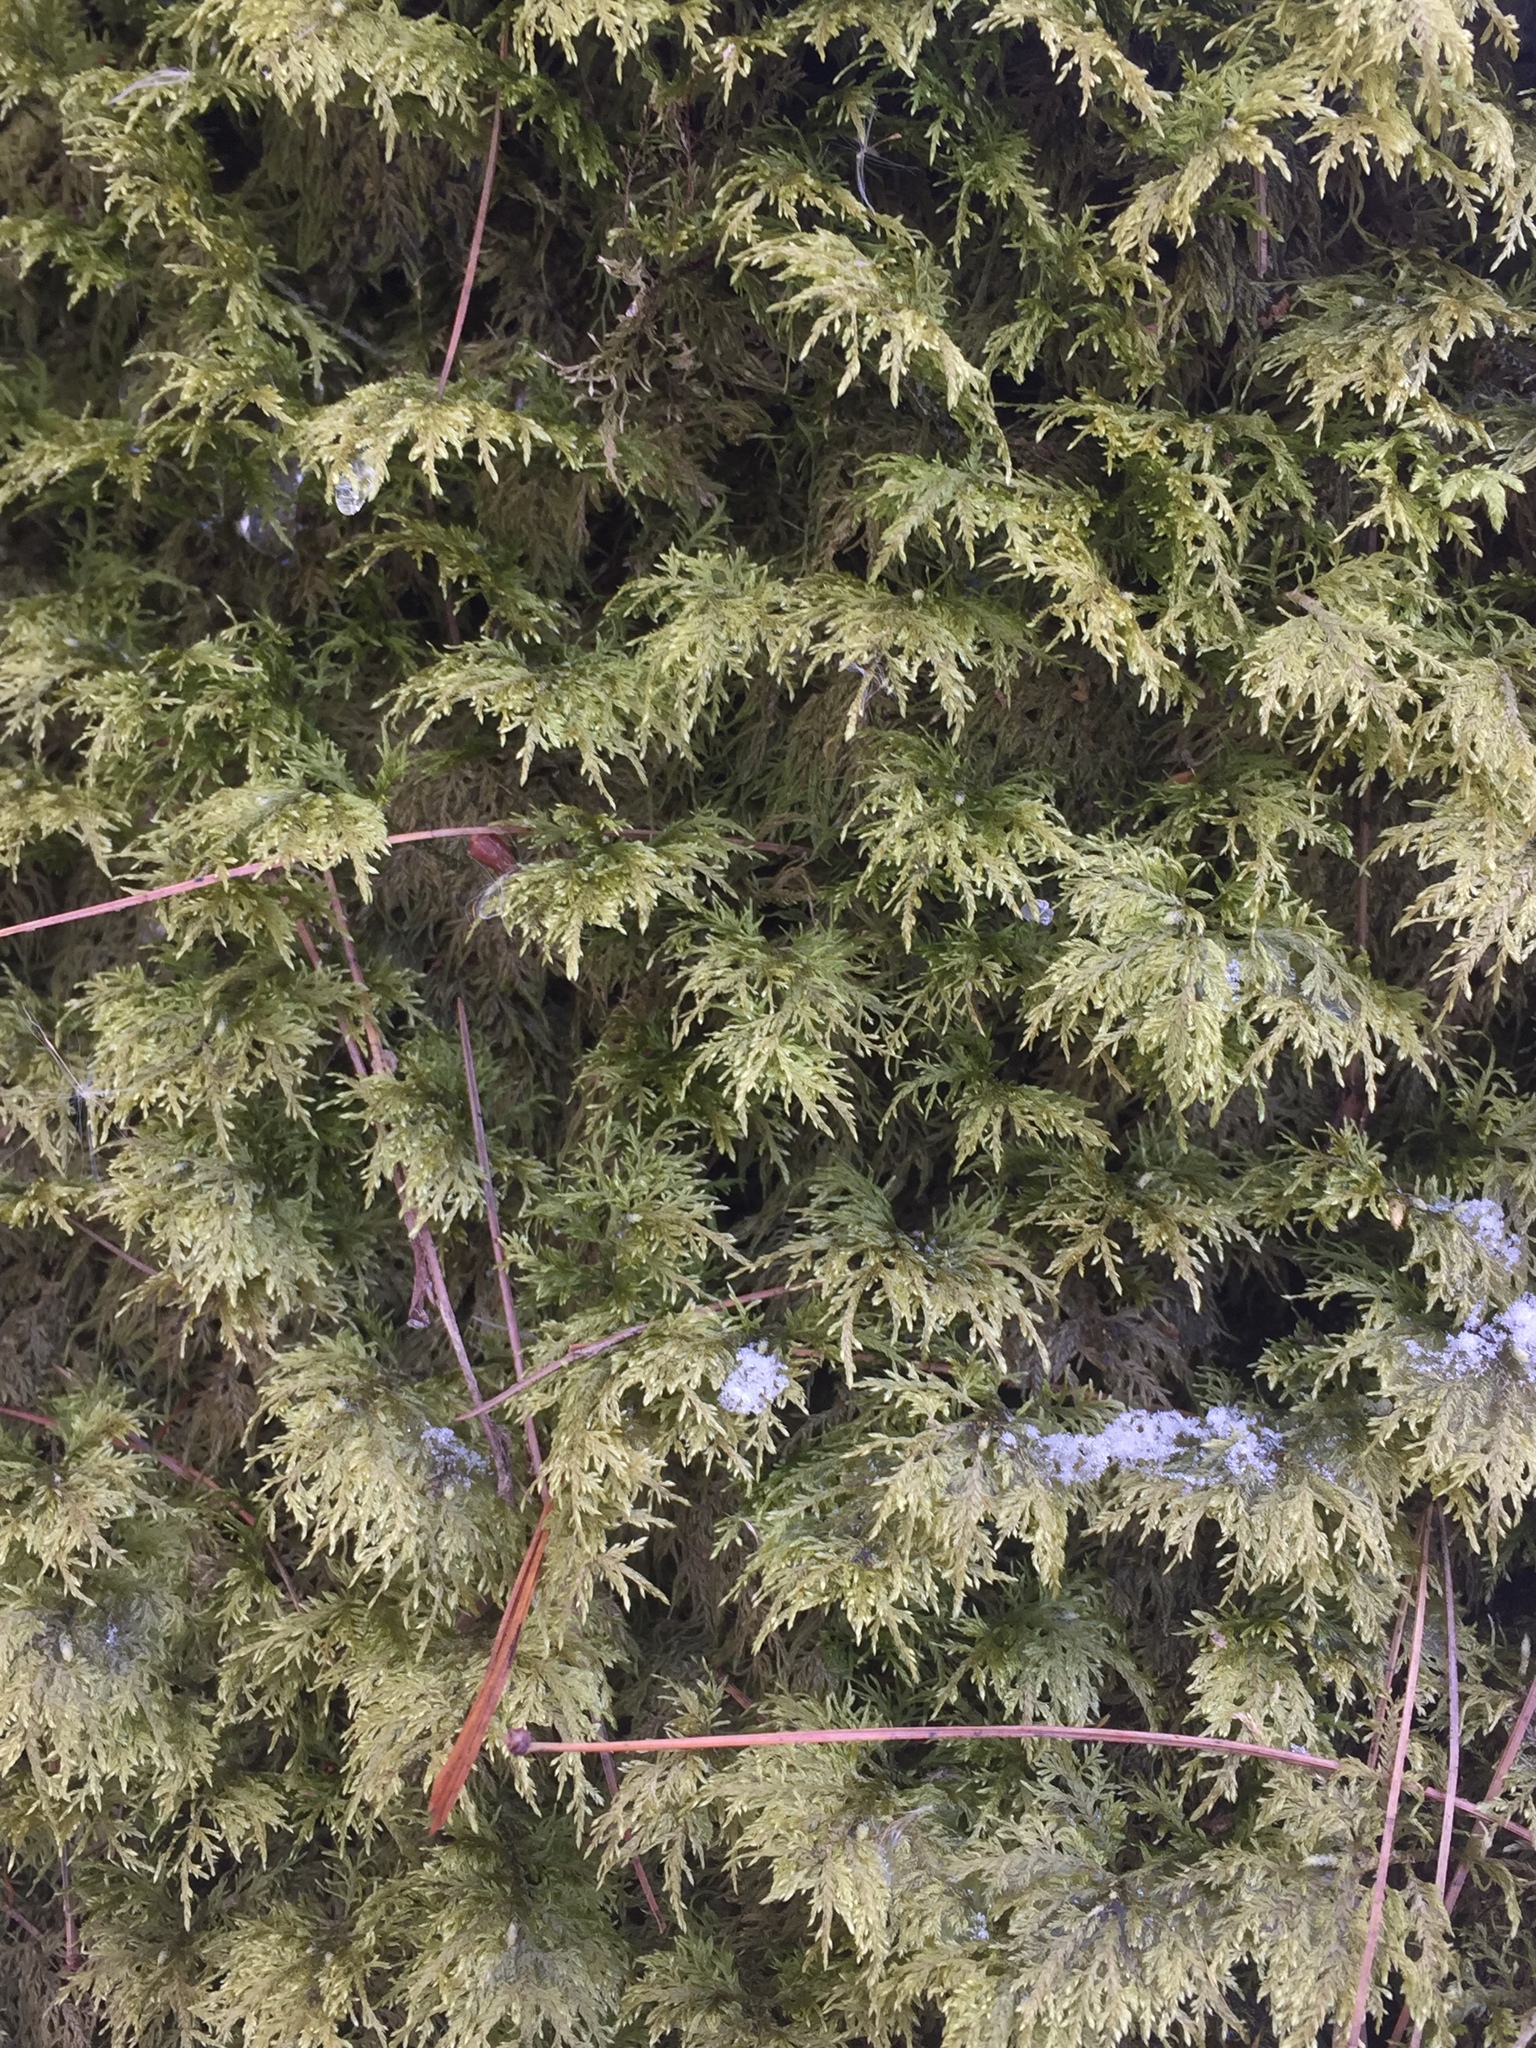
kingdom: Plantae
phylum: Bryophyta
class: Bryopsida
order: Hypnales
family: Hylocomiaceae
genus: Hylocomium
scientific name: Hylocomium splendens
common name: Stairstep moss
